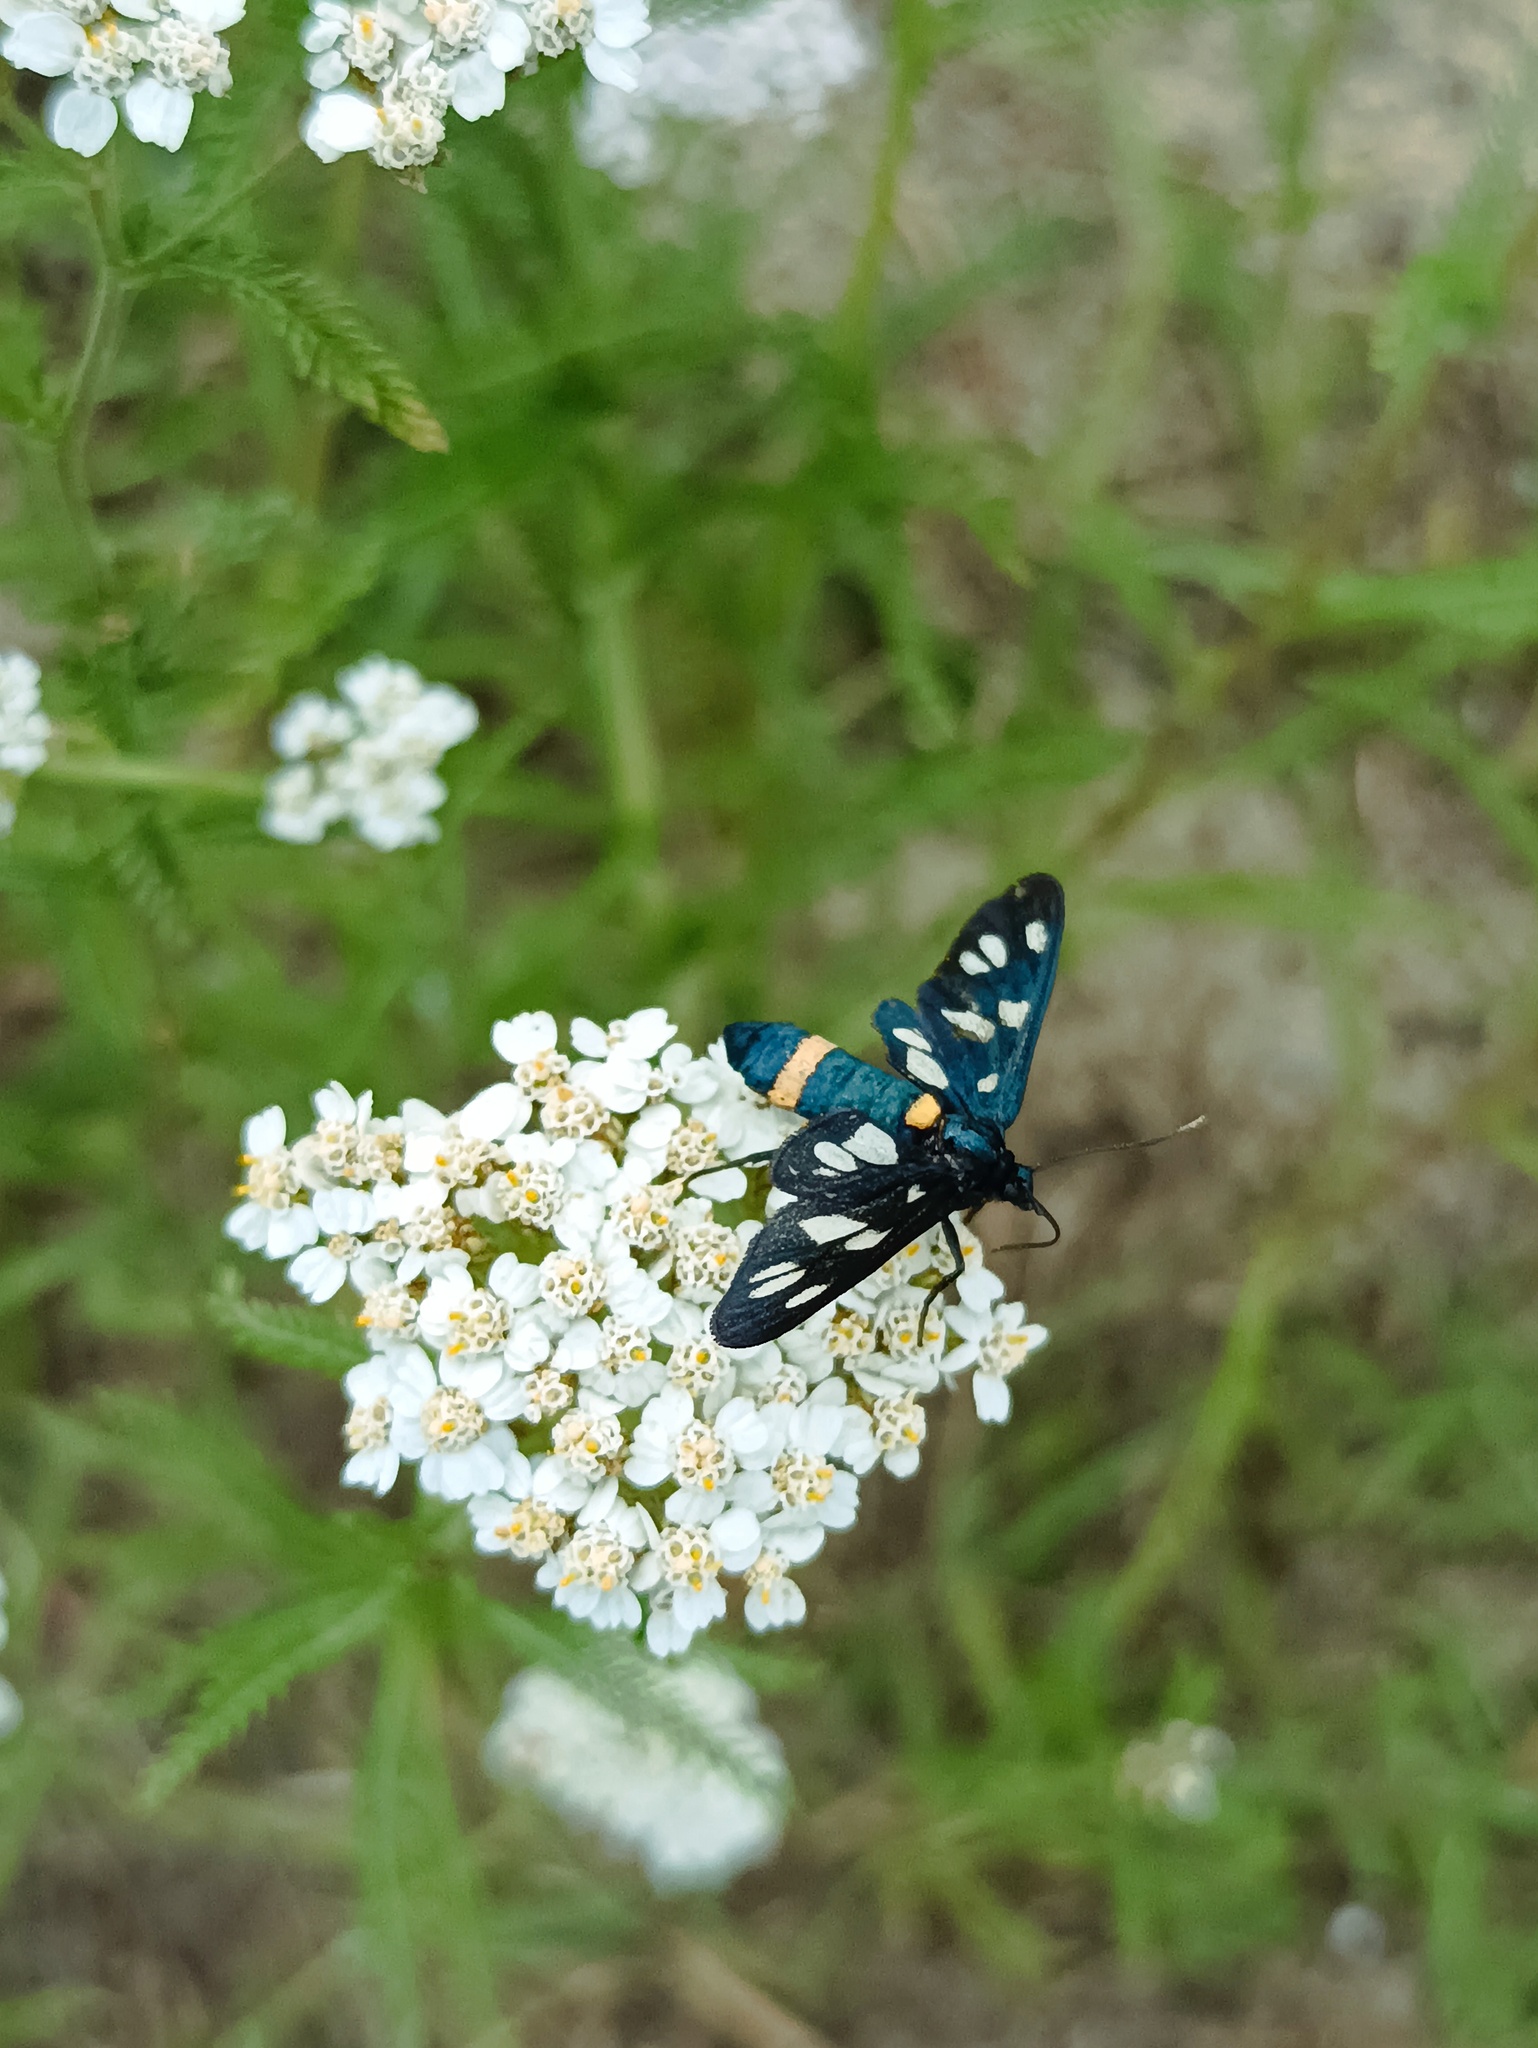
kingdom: Animalia
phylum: Arthropoda
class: Insecta
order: Lepidoptera
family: Erebidae
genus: Amata
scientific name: Amata nigricornis
